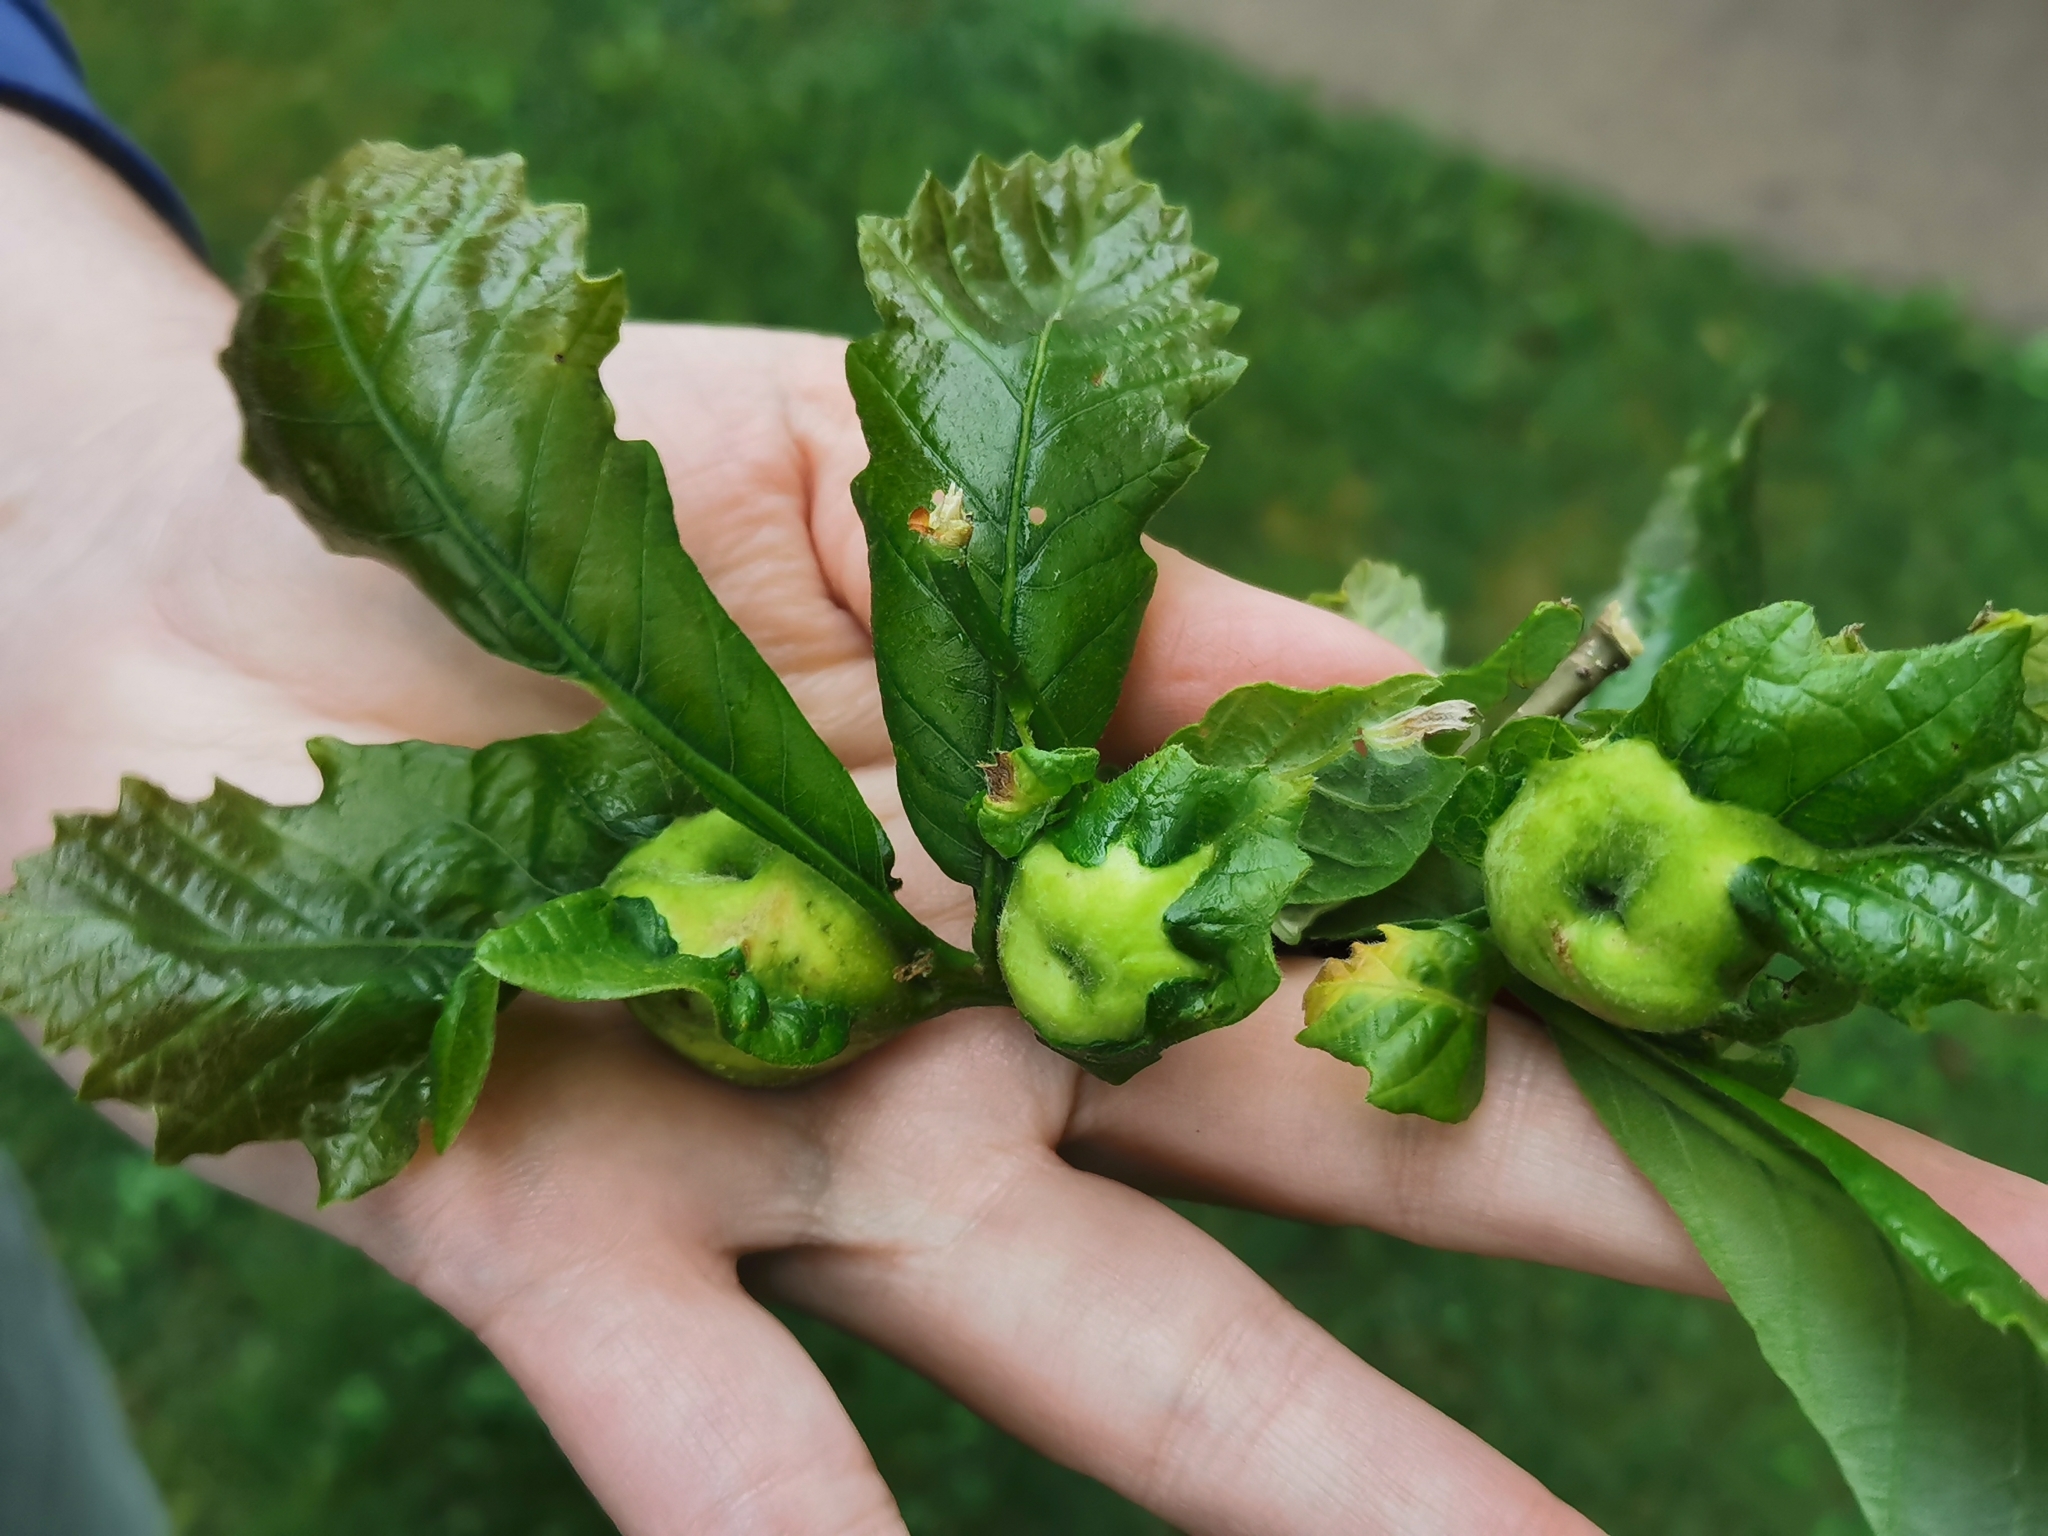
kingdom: Animalia
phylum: Arthropoda
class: Insecta
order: Hymenoptera
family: Cynipidae
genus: Andricus
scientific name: Andricus
